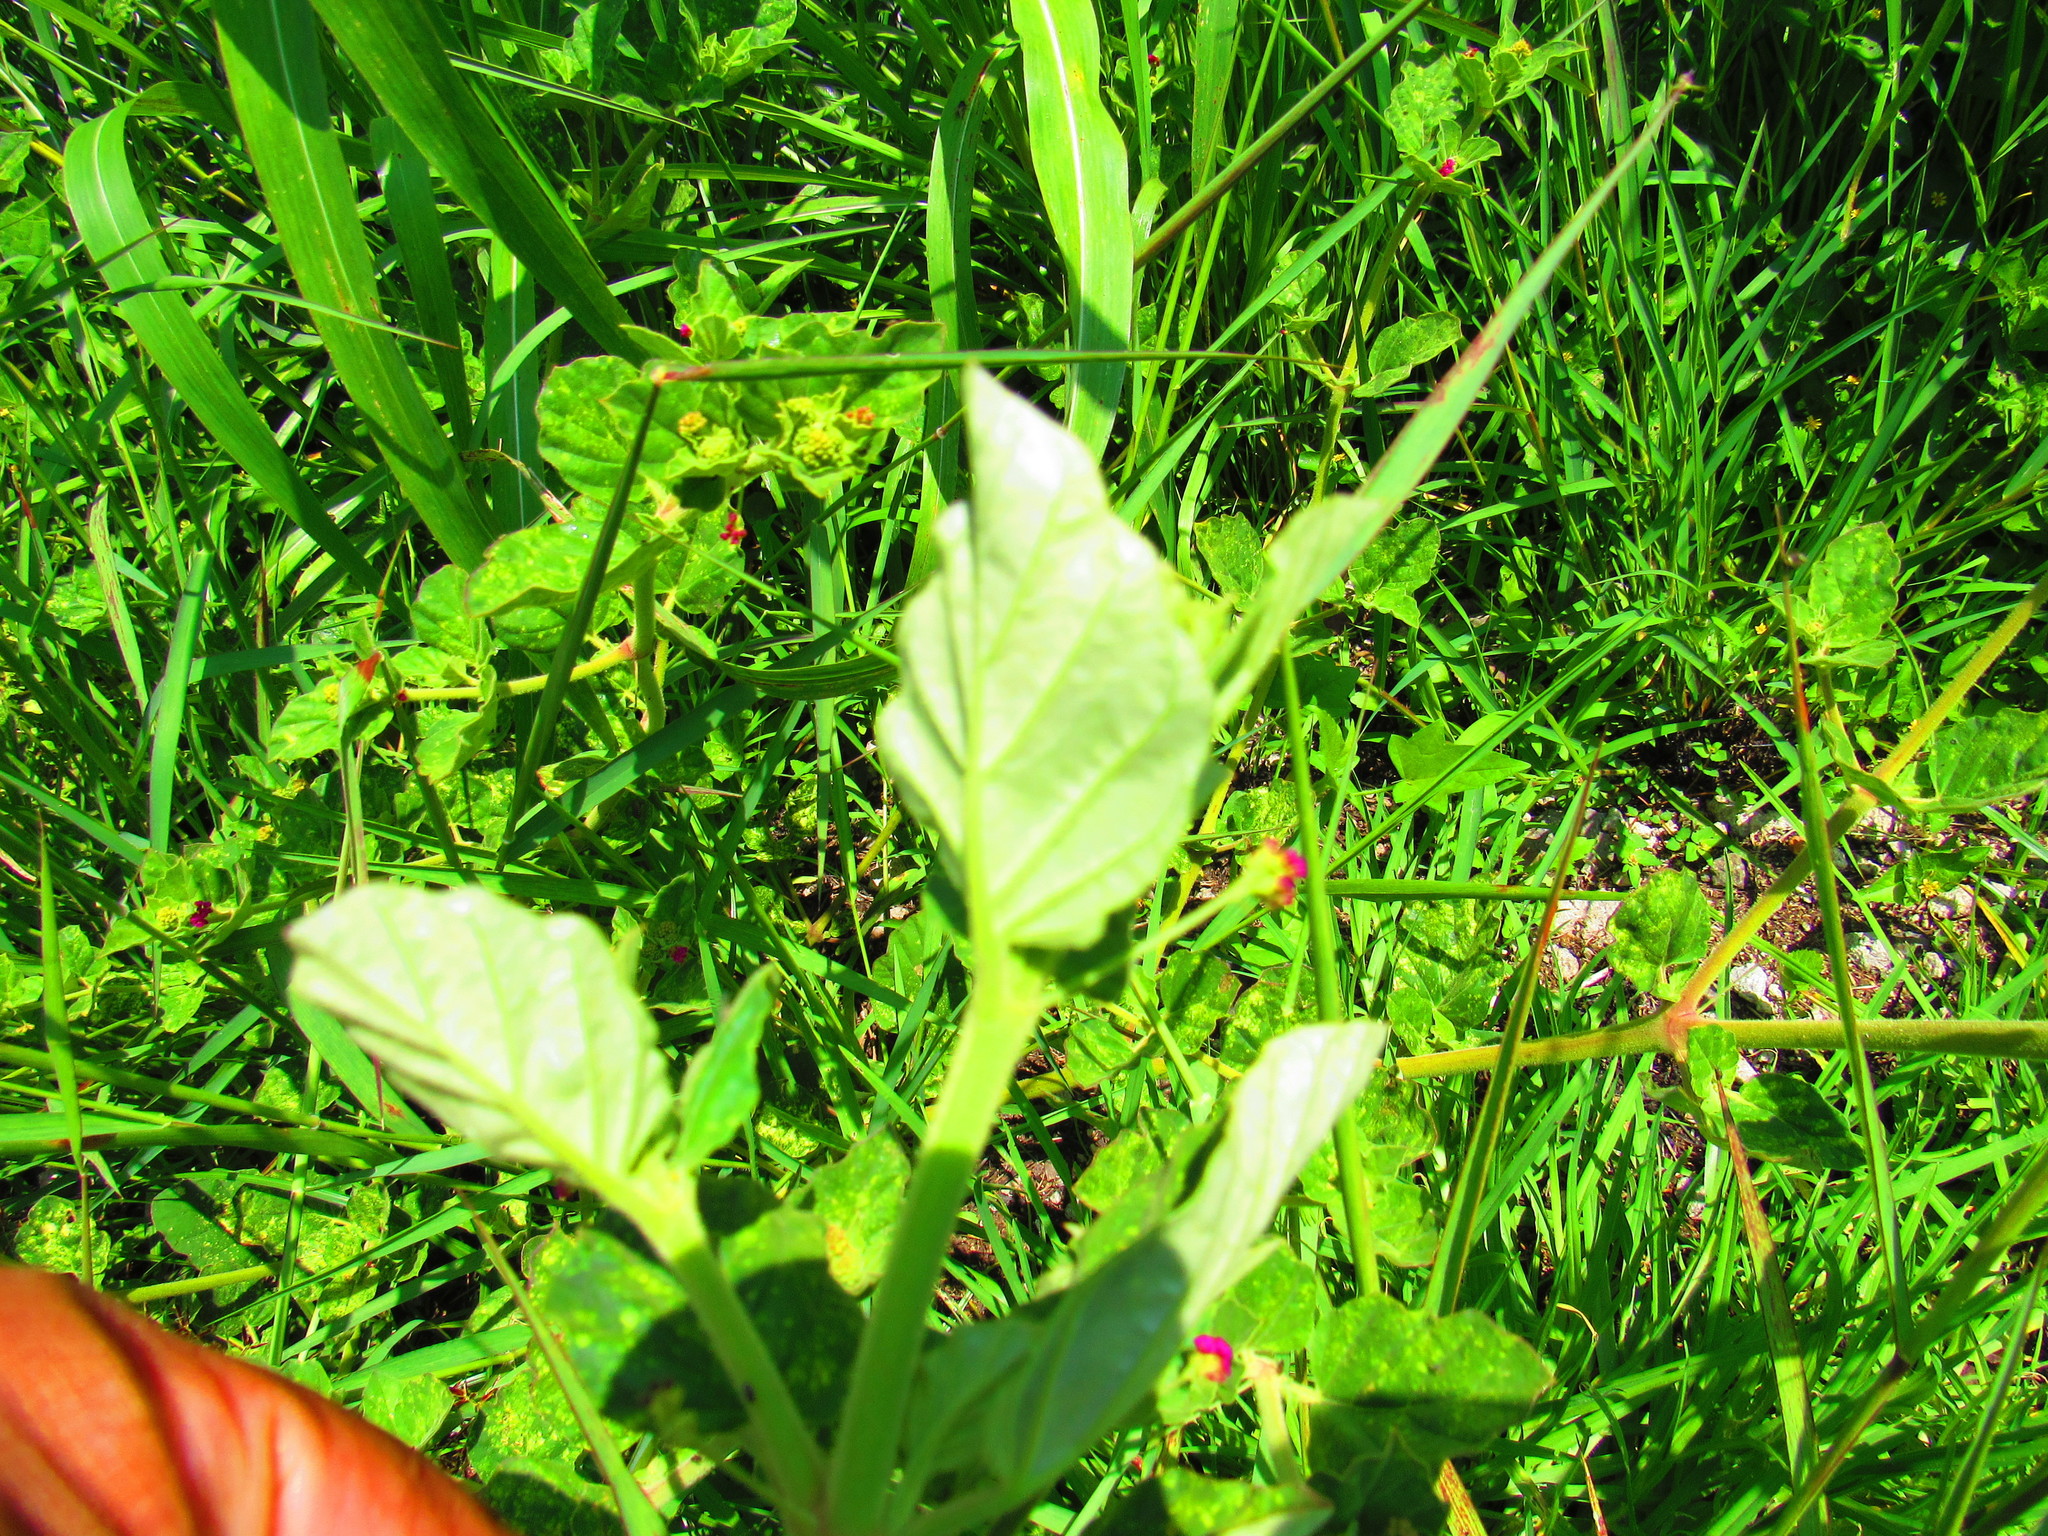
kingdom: Plantae
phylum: Tracheophyta
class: Magnoliopsida
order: Caryophyllales
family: Nyctaginaceae
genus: Boerhavia
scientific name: Boerhavia coccinea
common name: Scarlet spiderling
